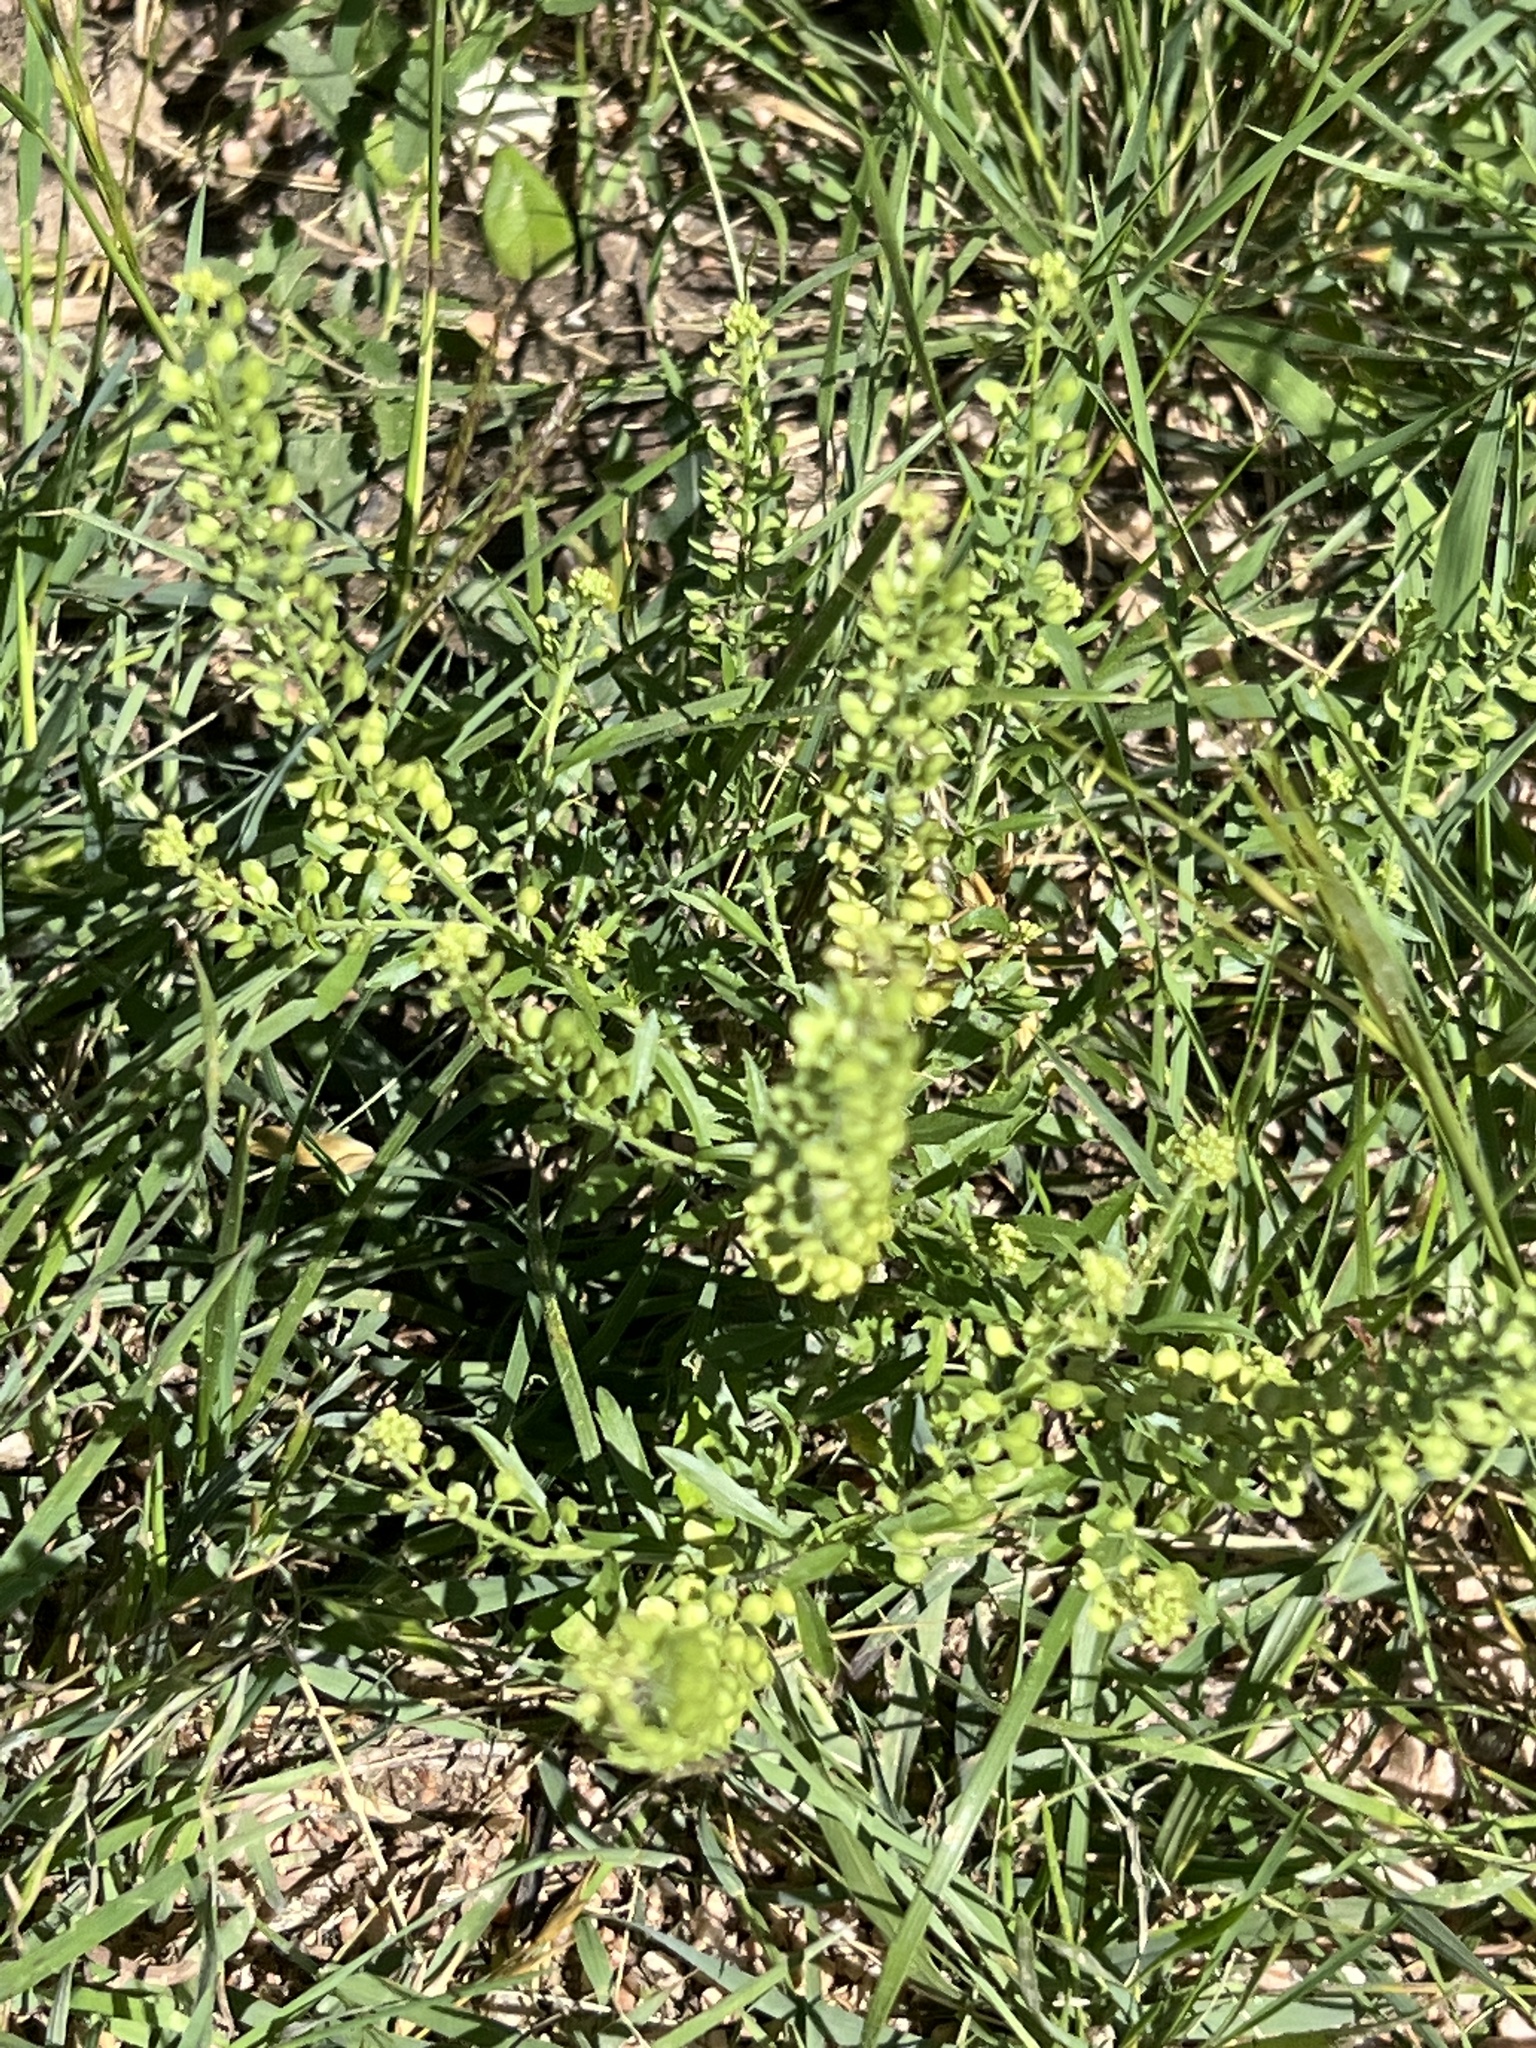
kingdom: Plantae
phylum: Tracheophyta
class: Magnoliopsida
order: Brassicales
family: Brassicaceae
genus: Lepidium
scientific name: Lepidium virginicum
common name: Least pepperwort
